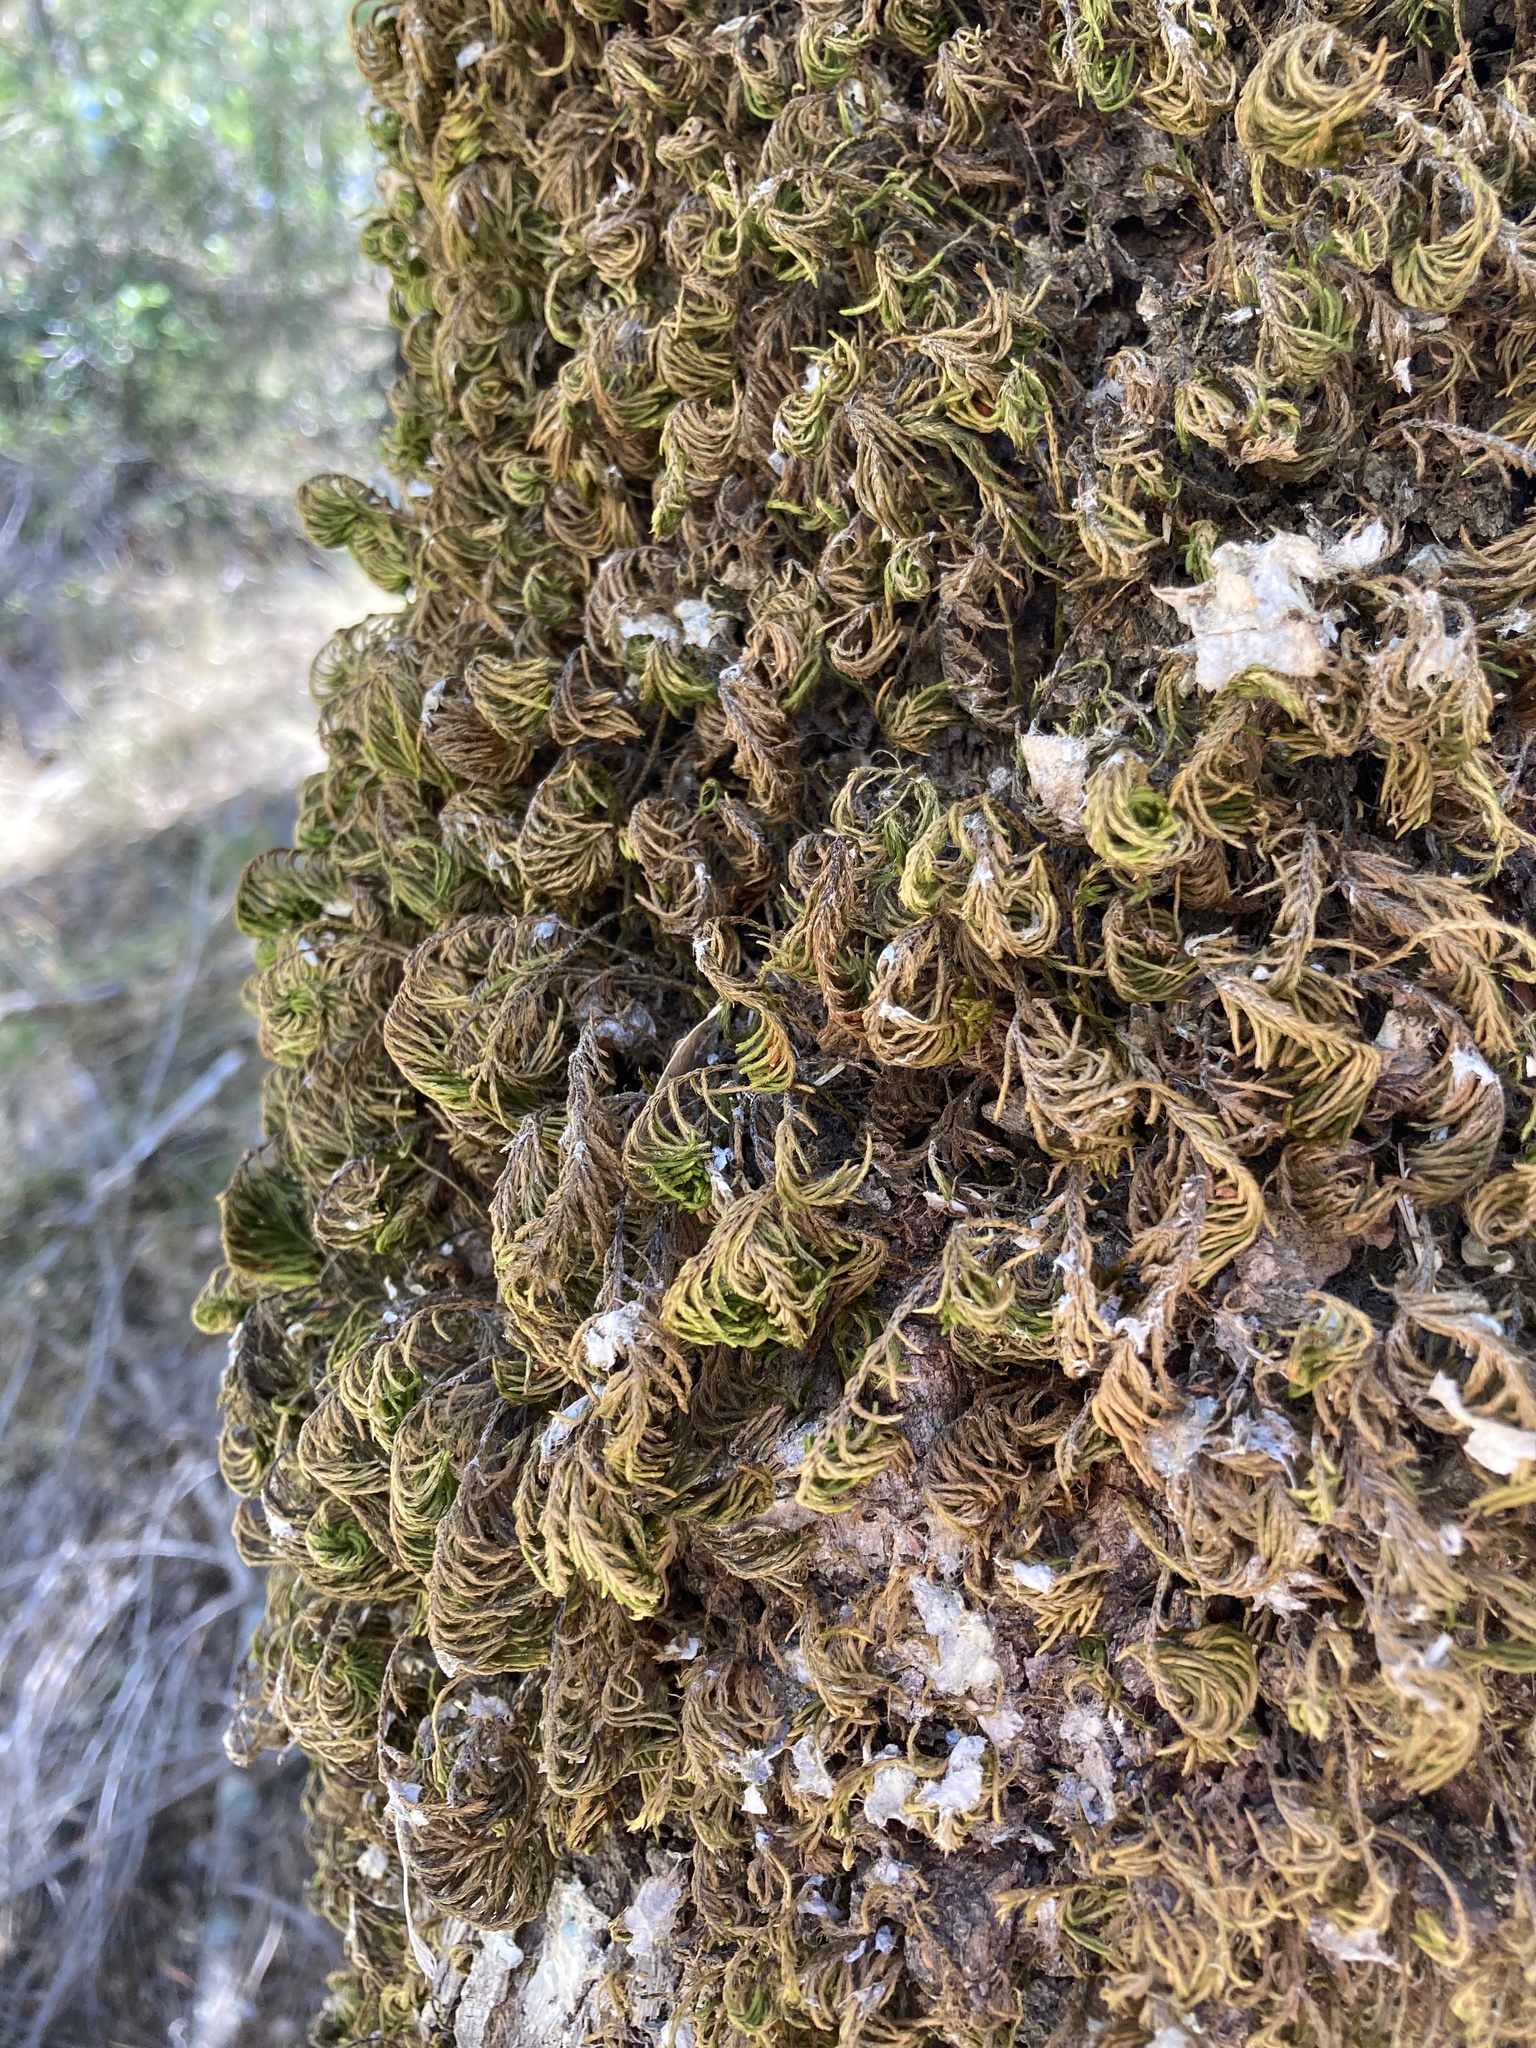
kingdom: Plantae
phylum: Bryophyta
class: Bryopsida
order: Hypnales
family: Cryphaeaceae
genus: Dendroalsia
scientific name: Dendroalsia abietina
